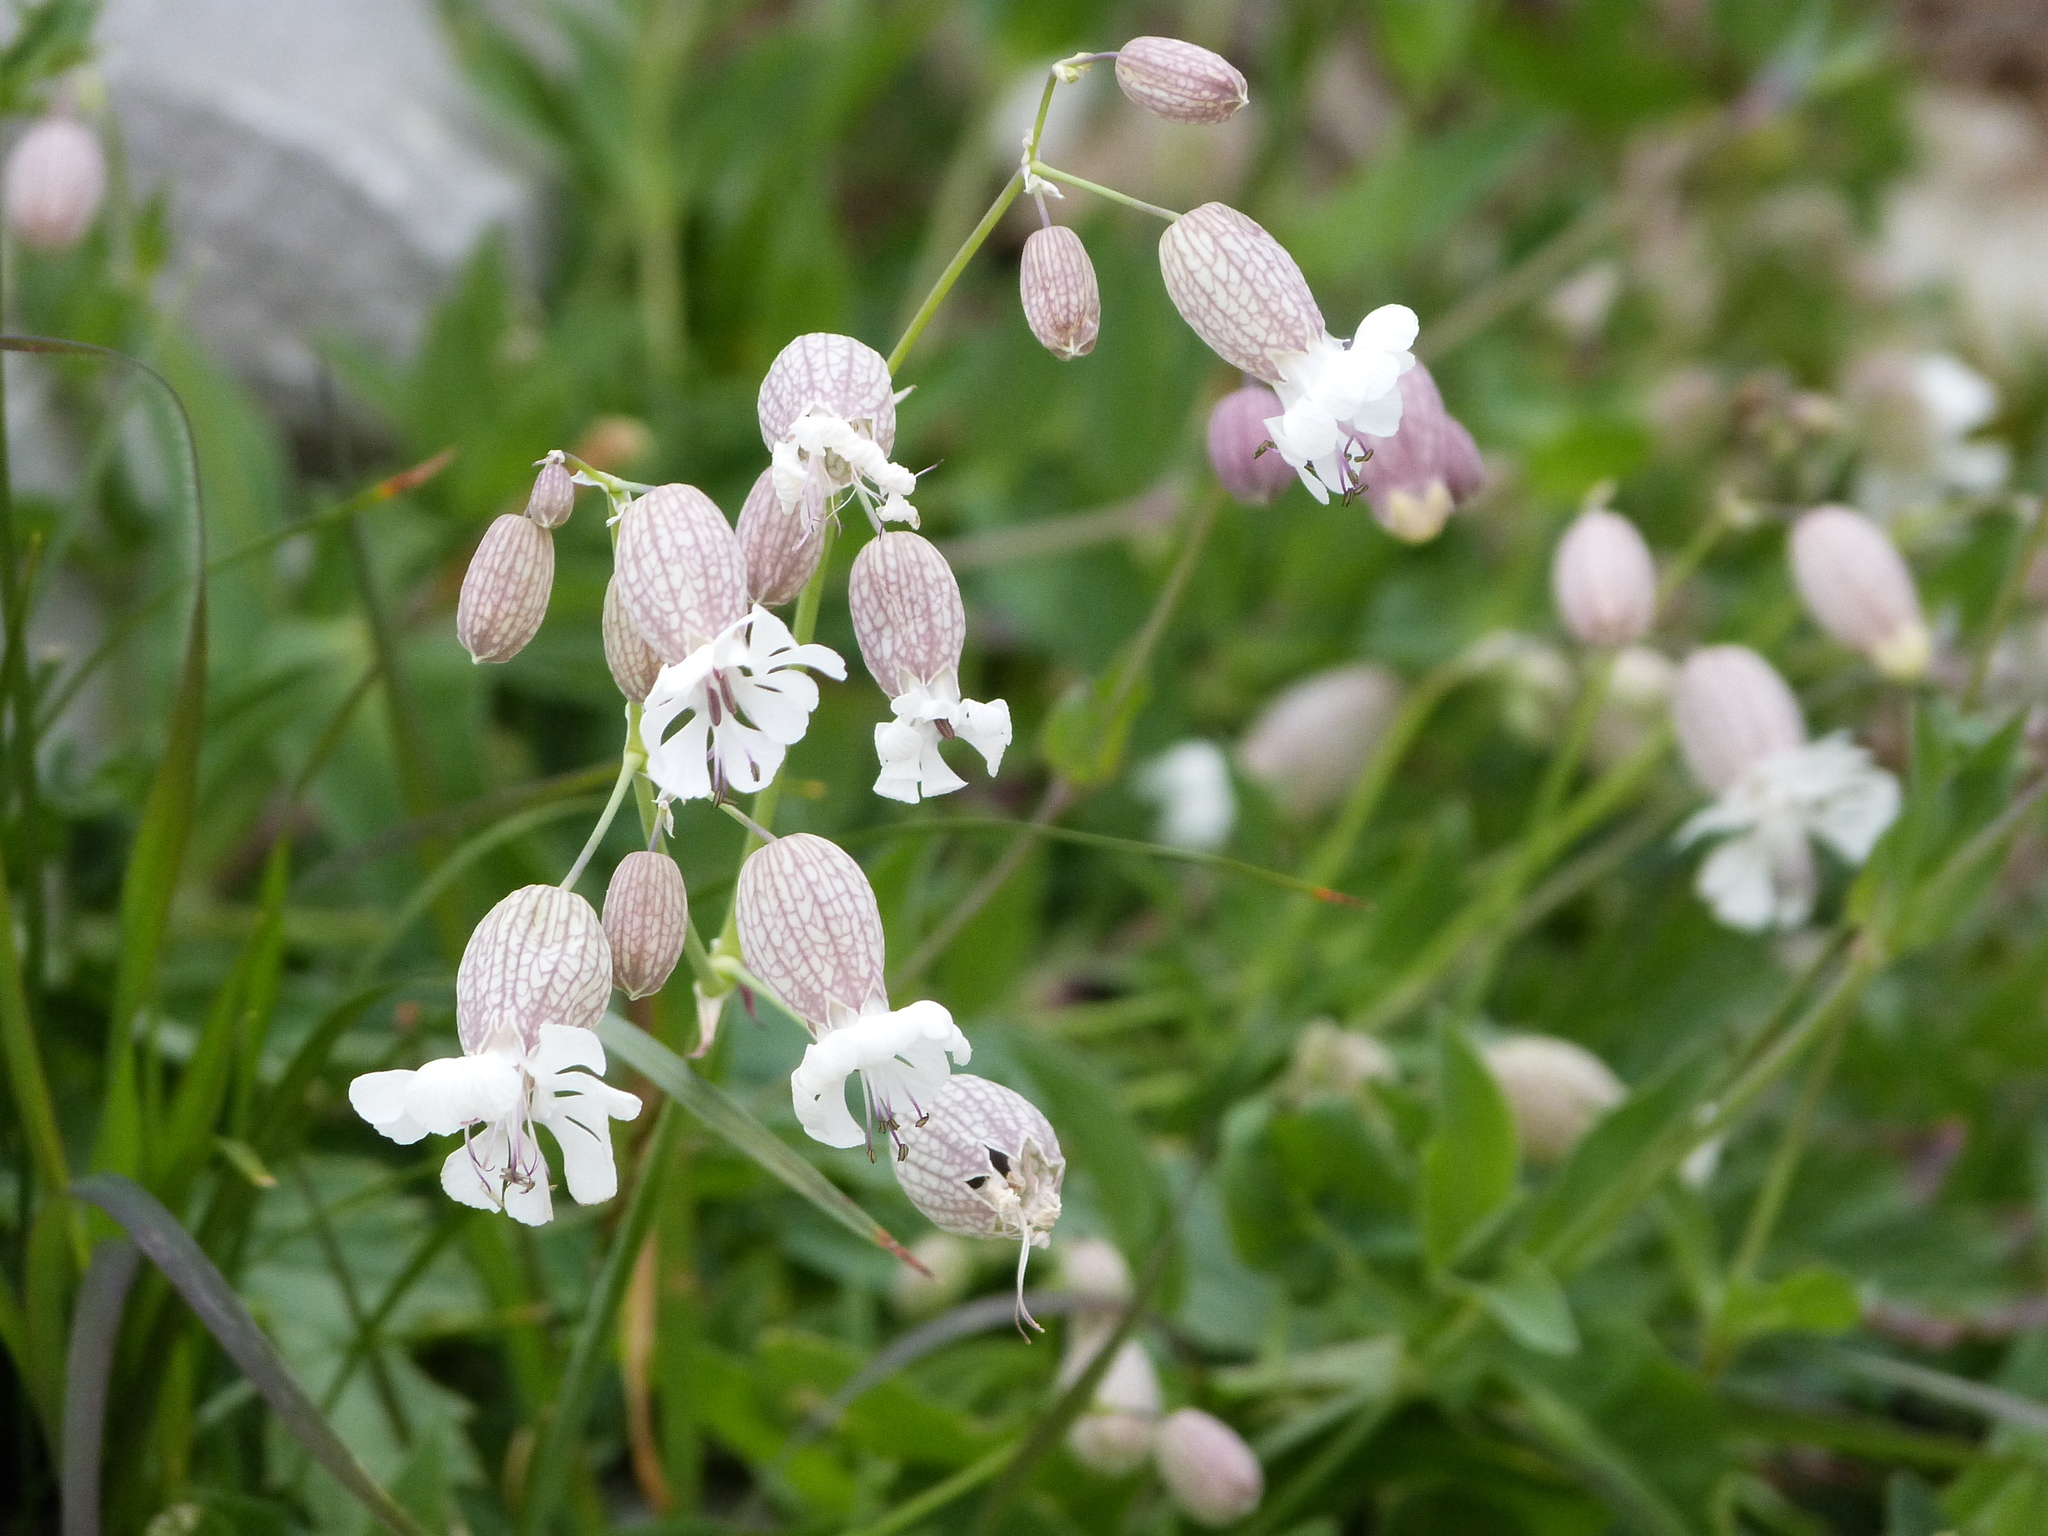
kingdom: Plantae
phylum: Tracheophyta
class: Magnoliopsida
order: Caryophyllales
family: Caryophyllaceae
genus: Silene
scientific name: Silene vulgaris
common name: Bladder campion
